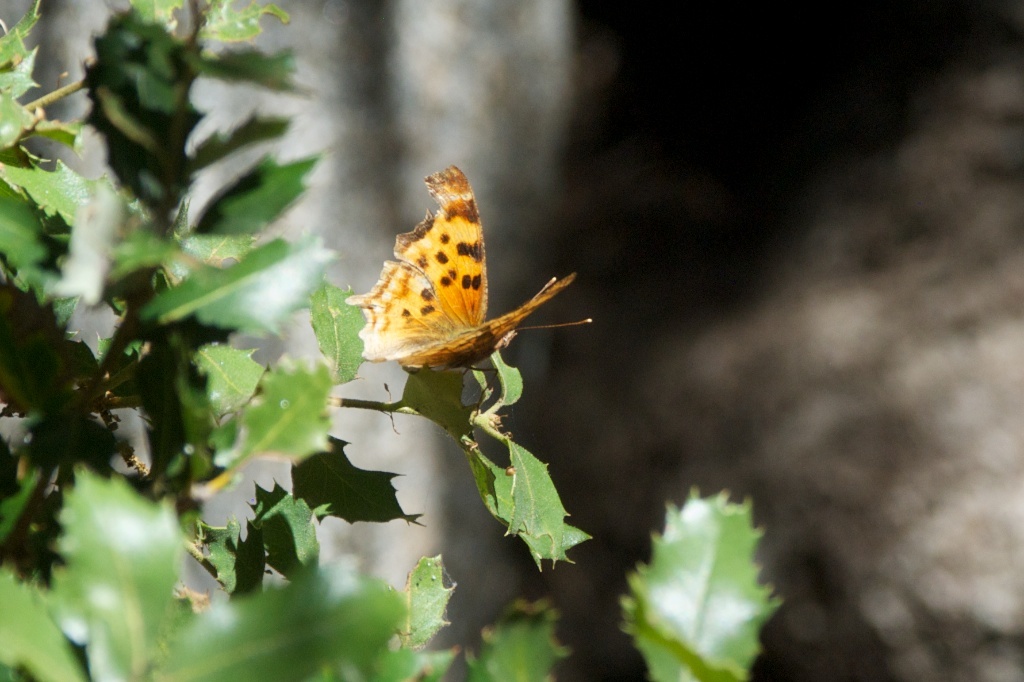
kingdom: Animalia
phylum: Arthropoda
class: Insecta
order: Lepidoptera
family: Nymphalidae
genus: Polygonia
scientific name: Polygonia satyrus
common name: Satyr angle wing
